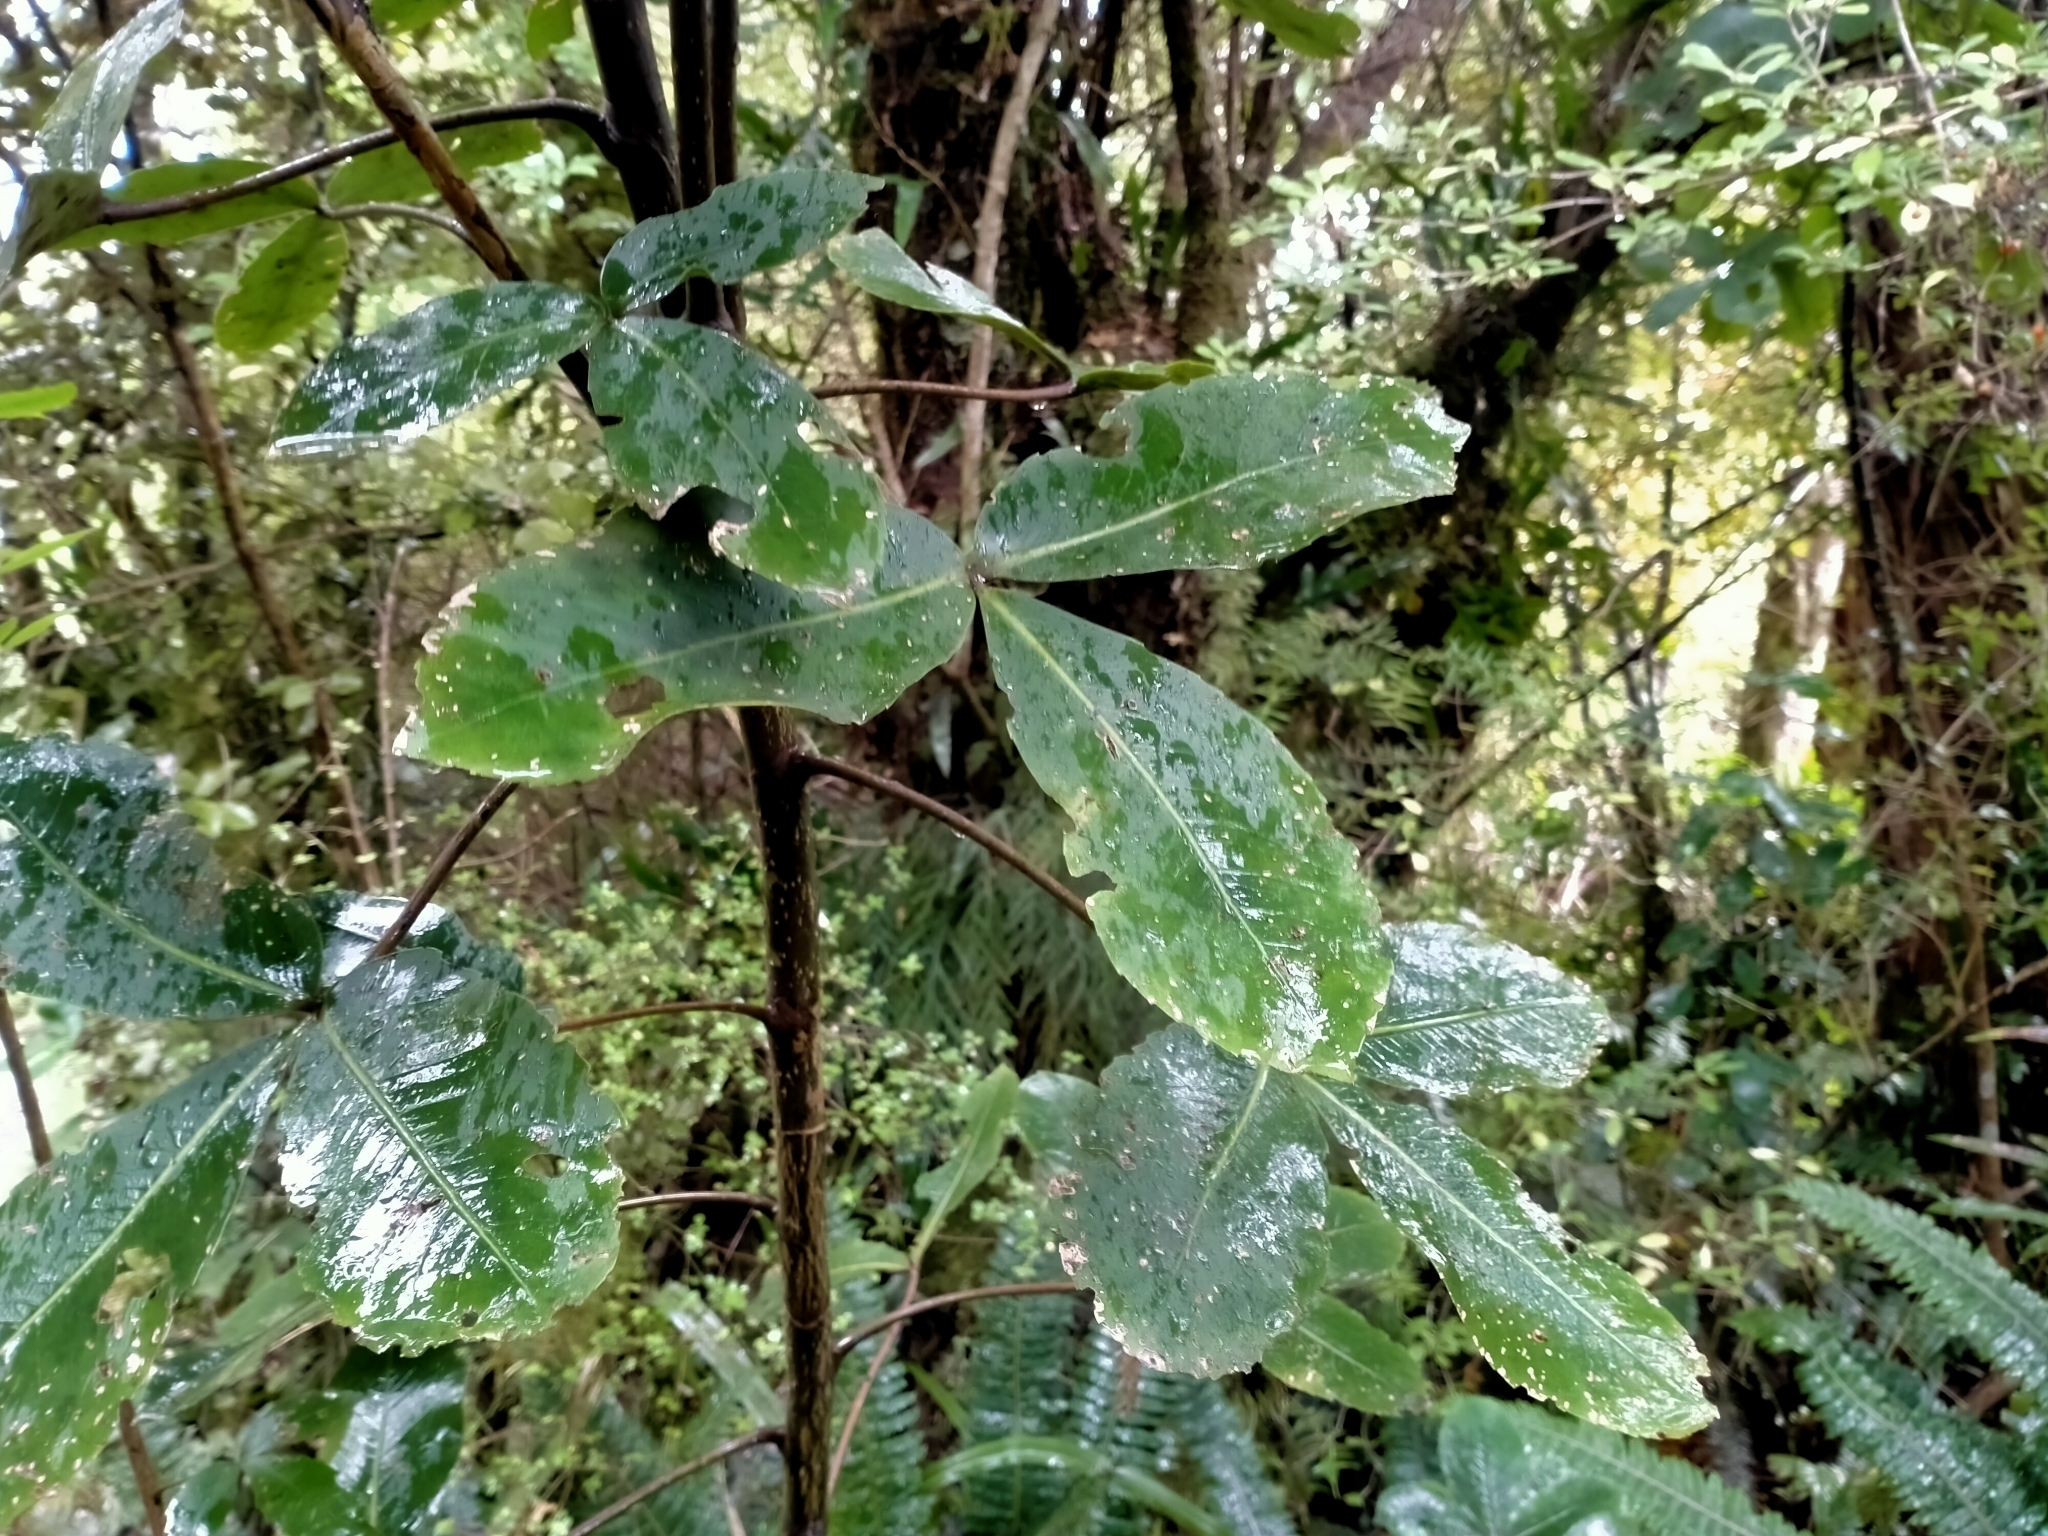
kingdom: Plantae
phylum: Tracheophyta
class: Magnoliopsida
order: Apiales
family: Araliaceae
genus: Neopanax
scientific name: Neopanax colensoi
